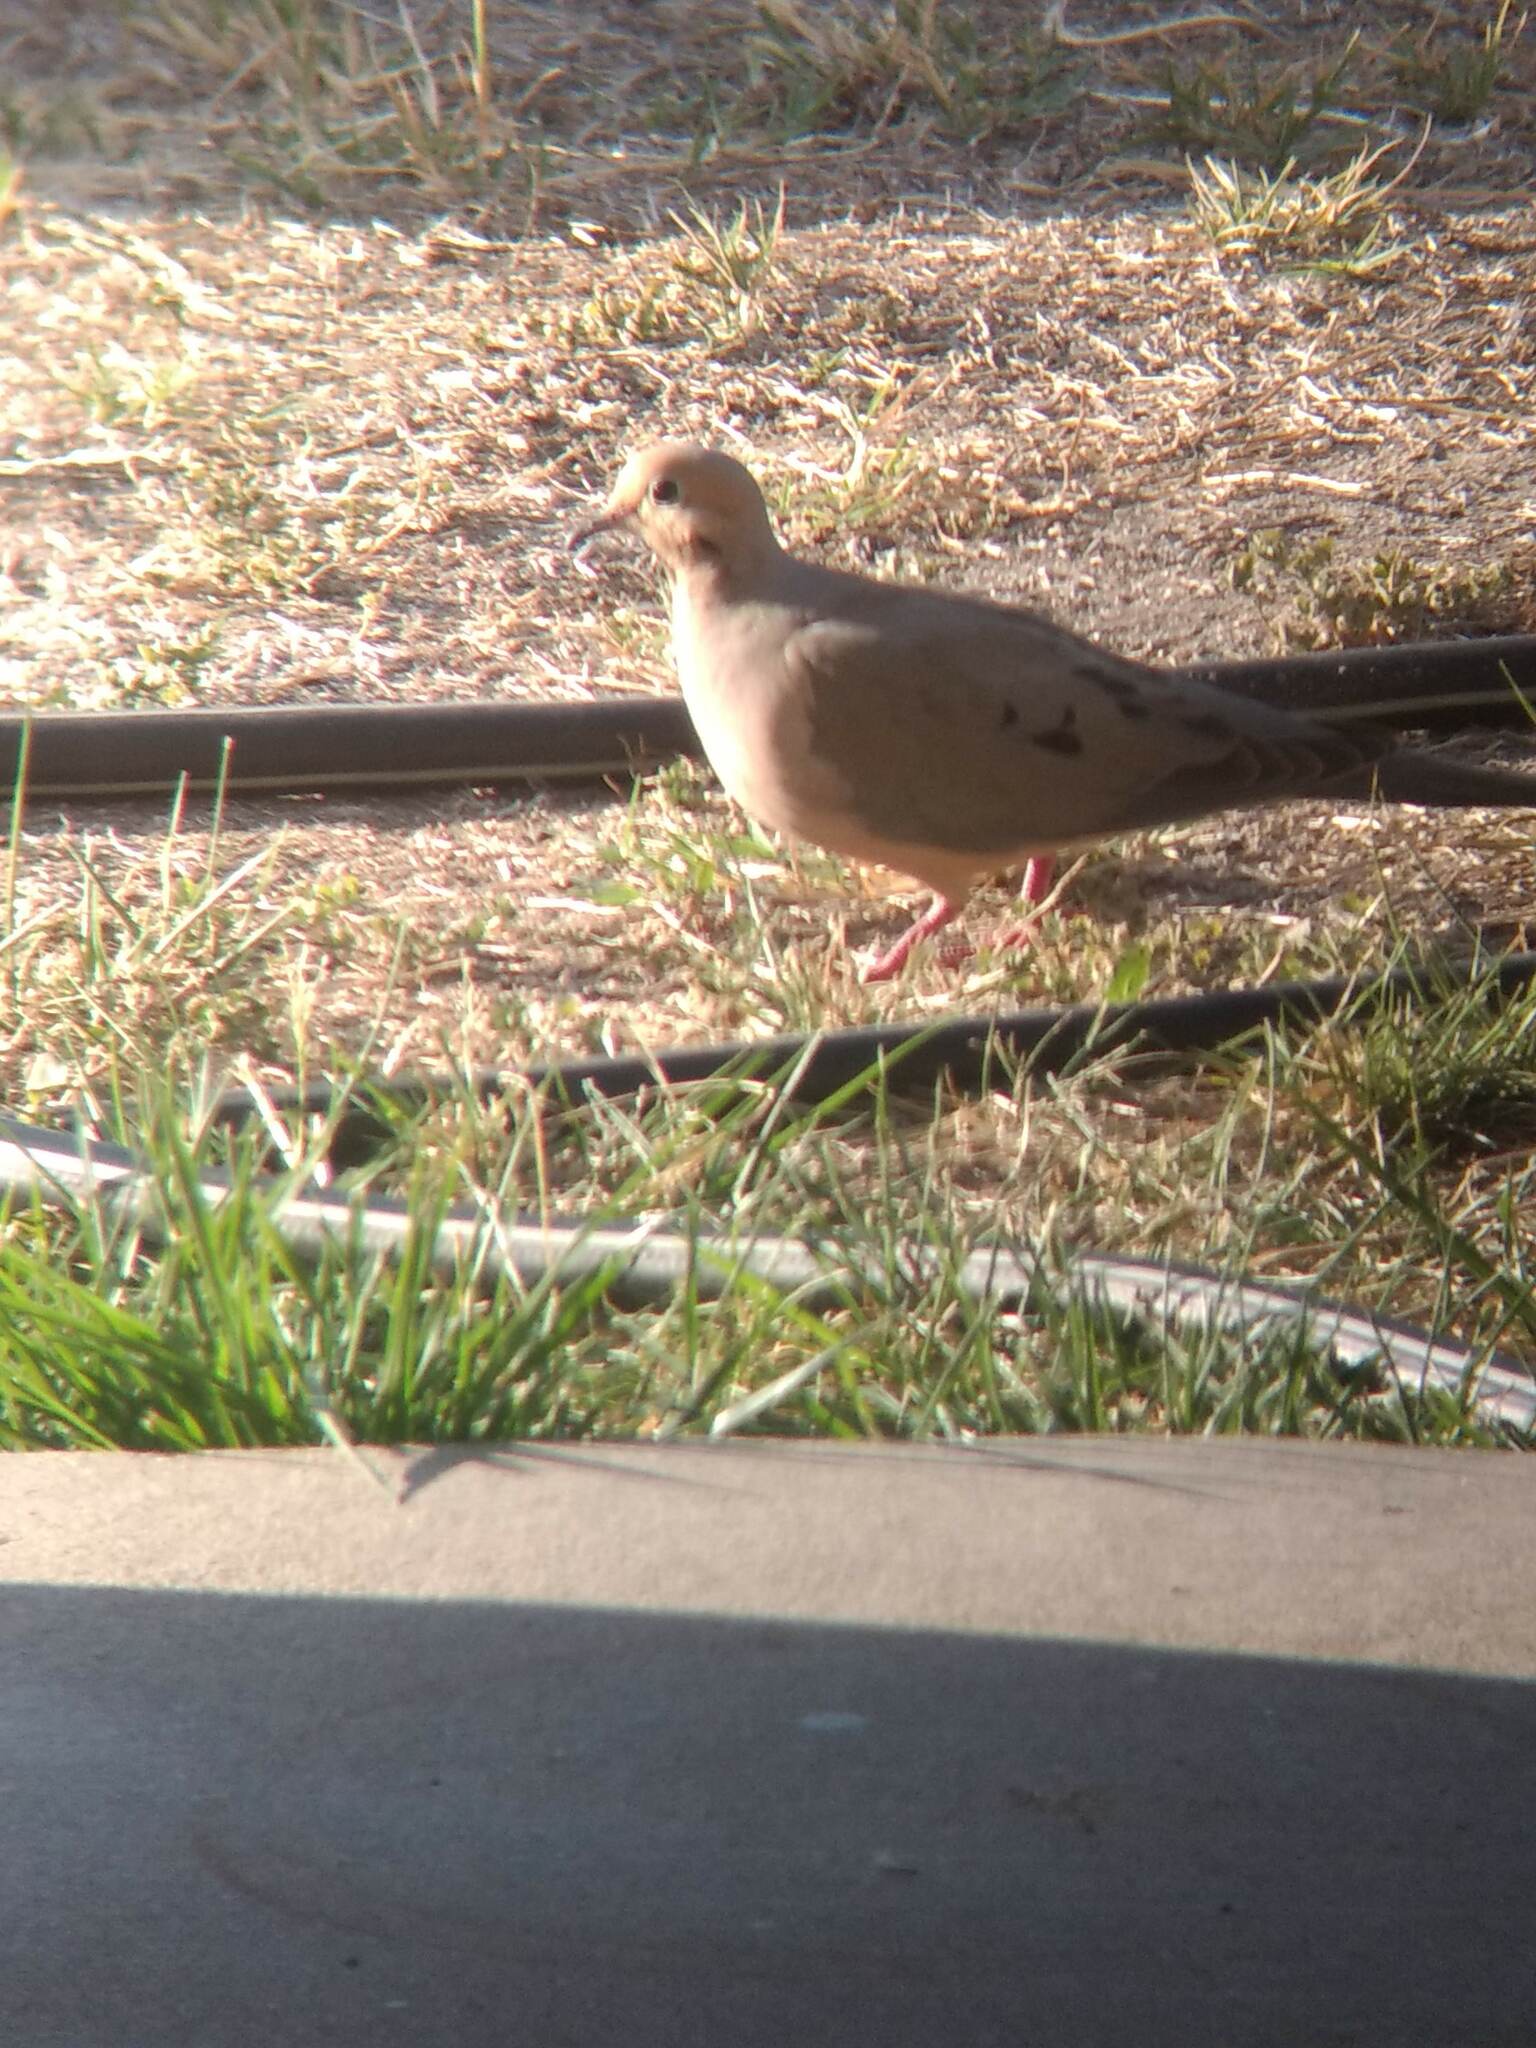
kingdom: Animalia
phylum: Chordata
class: Aves
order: Columbiformes
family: Columbidae
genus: Zenaida
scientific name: Zenaida macroura
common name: Mourning dove
